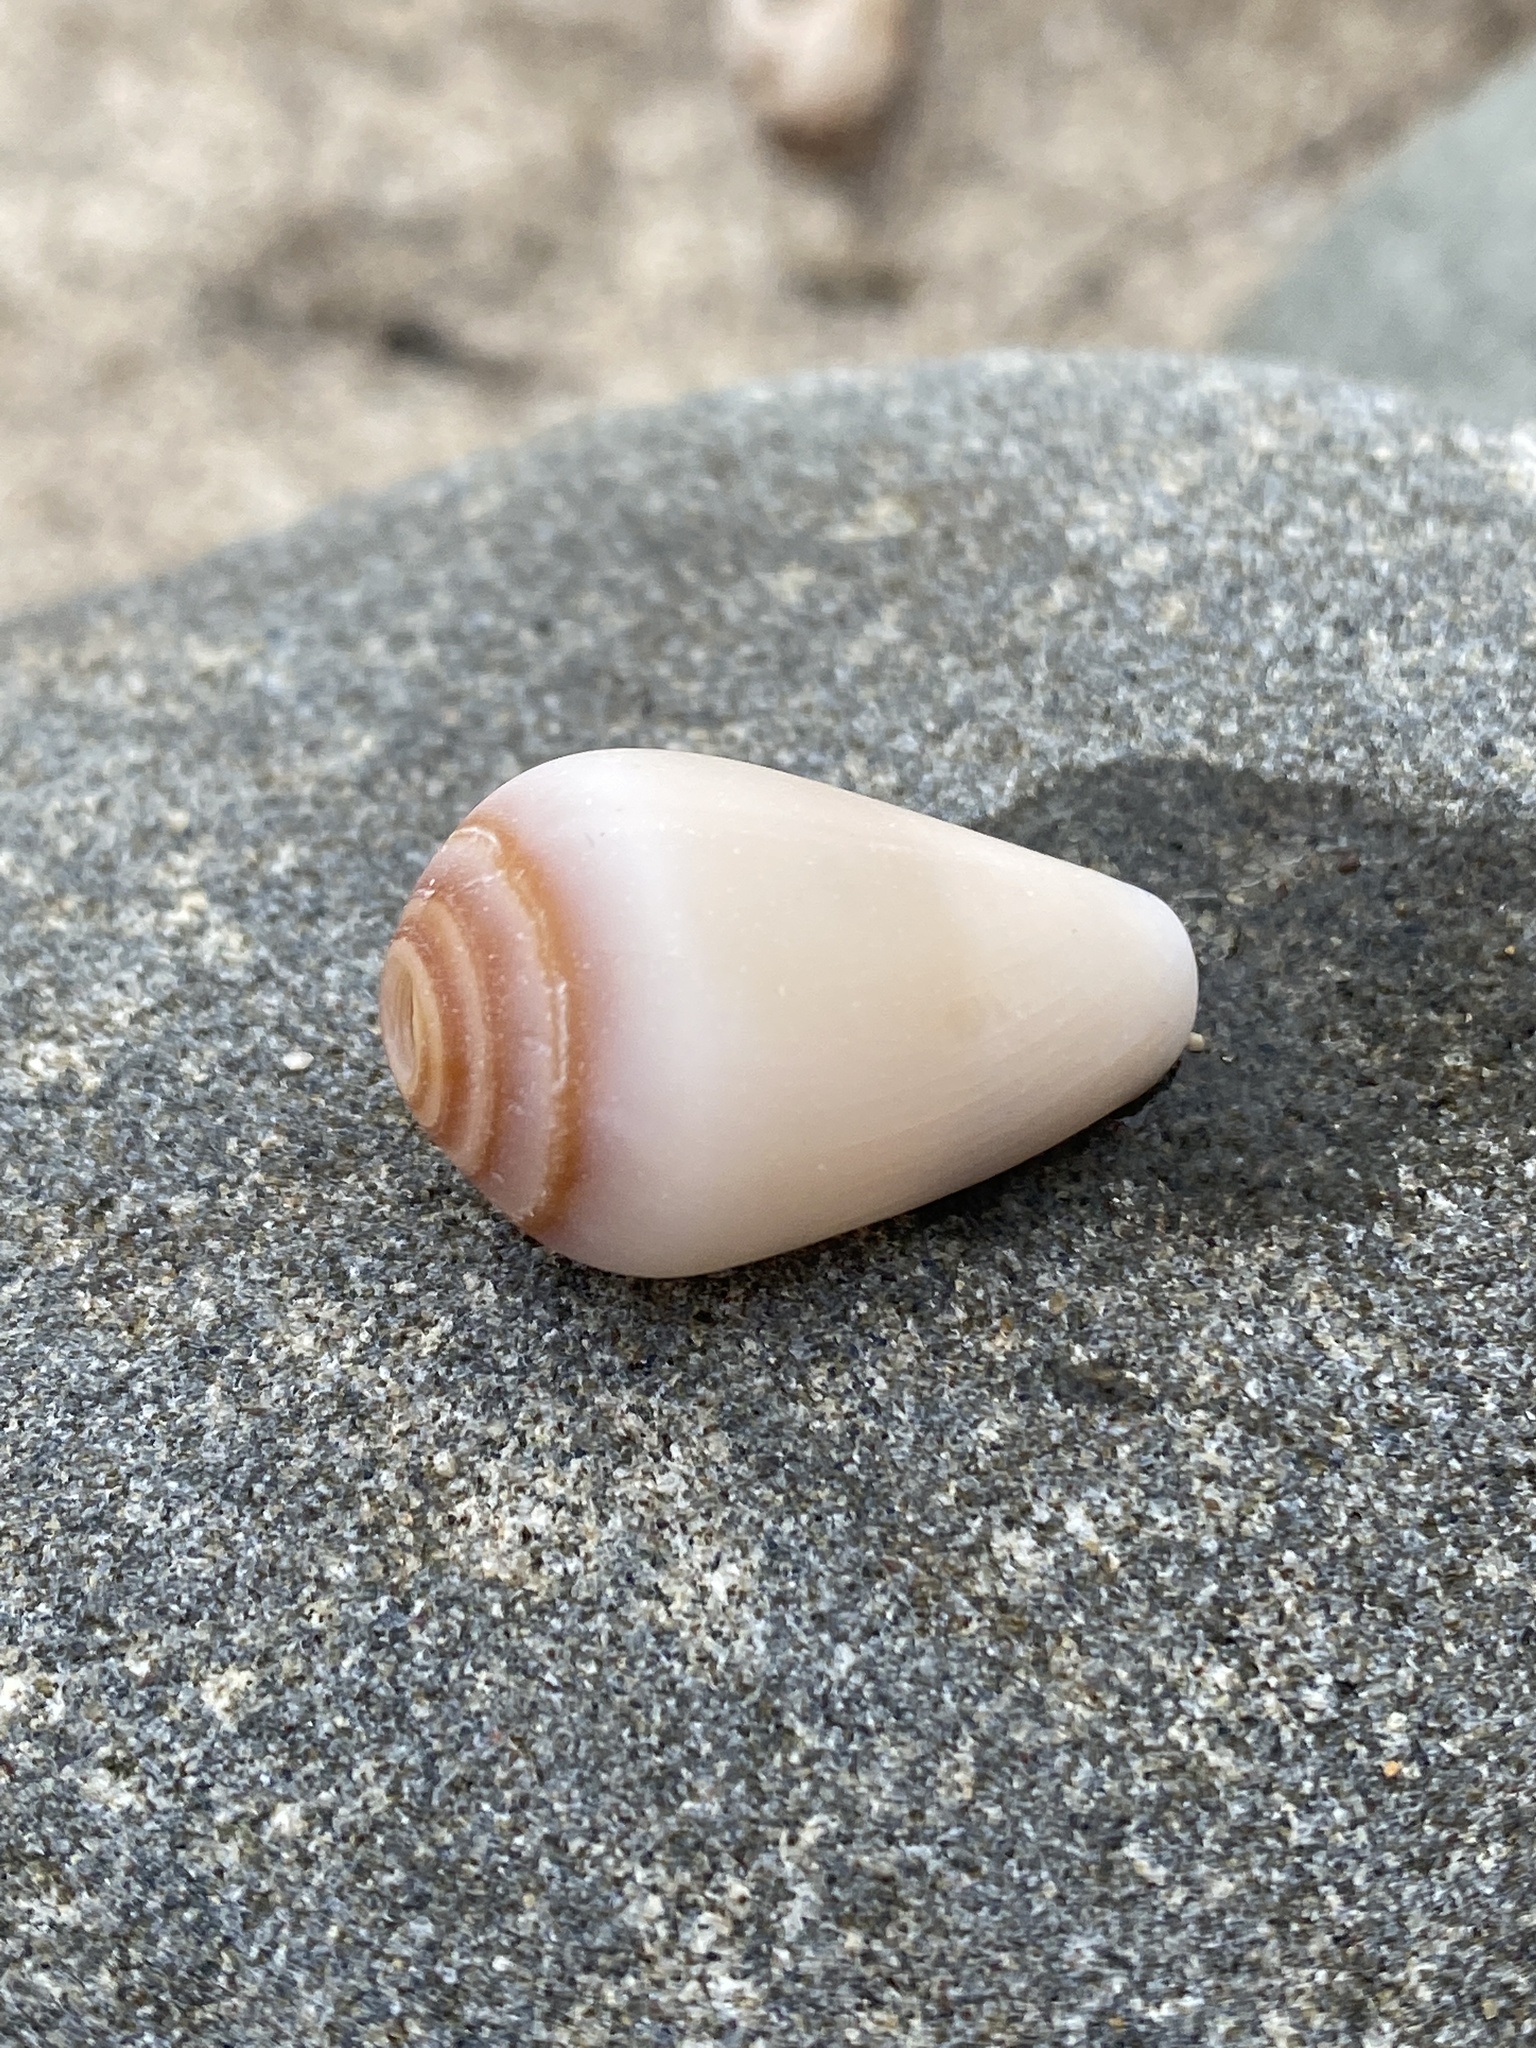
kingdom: Animalia
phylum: Mollusca
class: Gastropoda
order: Neogastropoda
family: Conidae
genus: Californiconus
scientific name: Californiconus californicus
